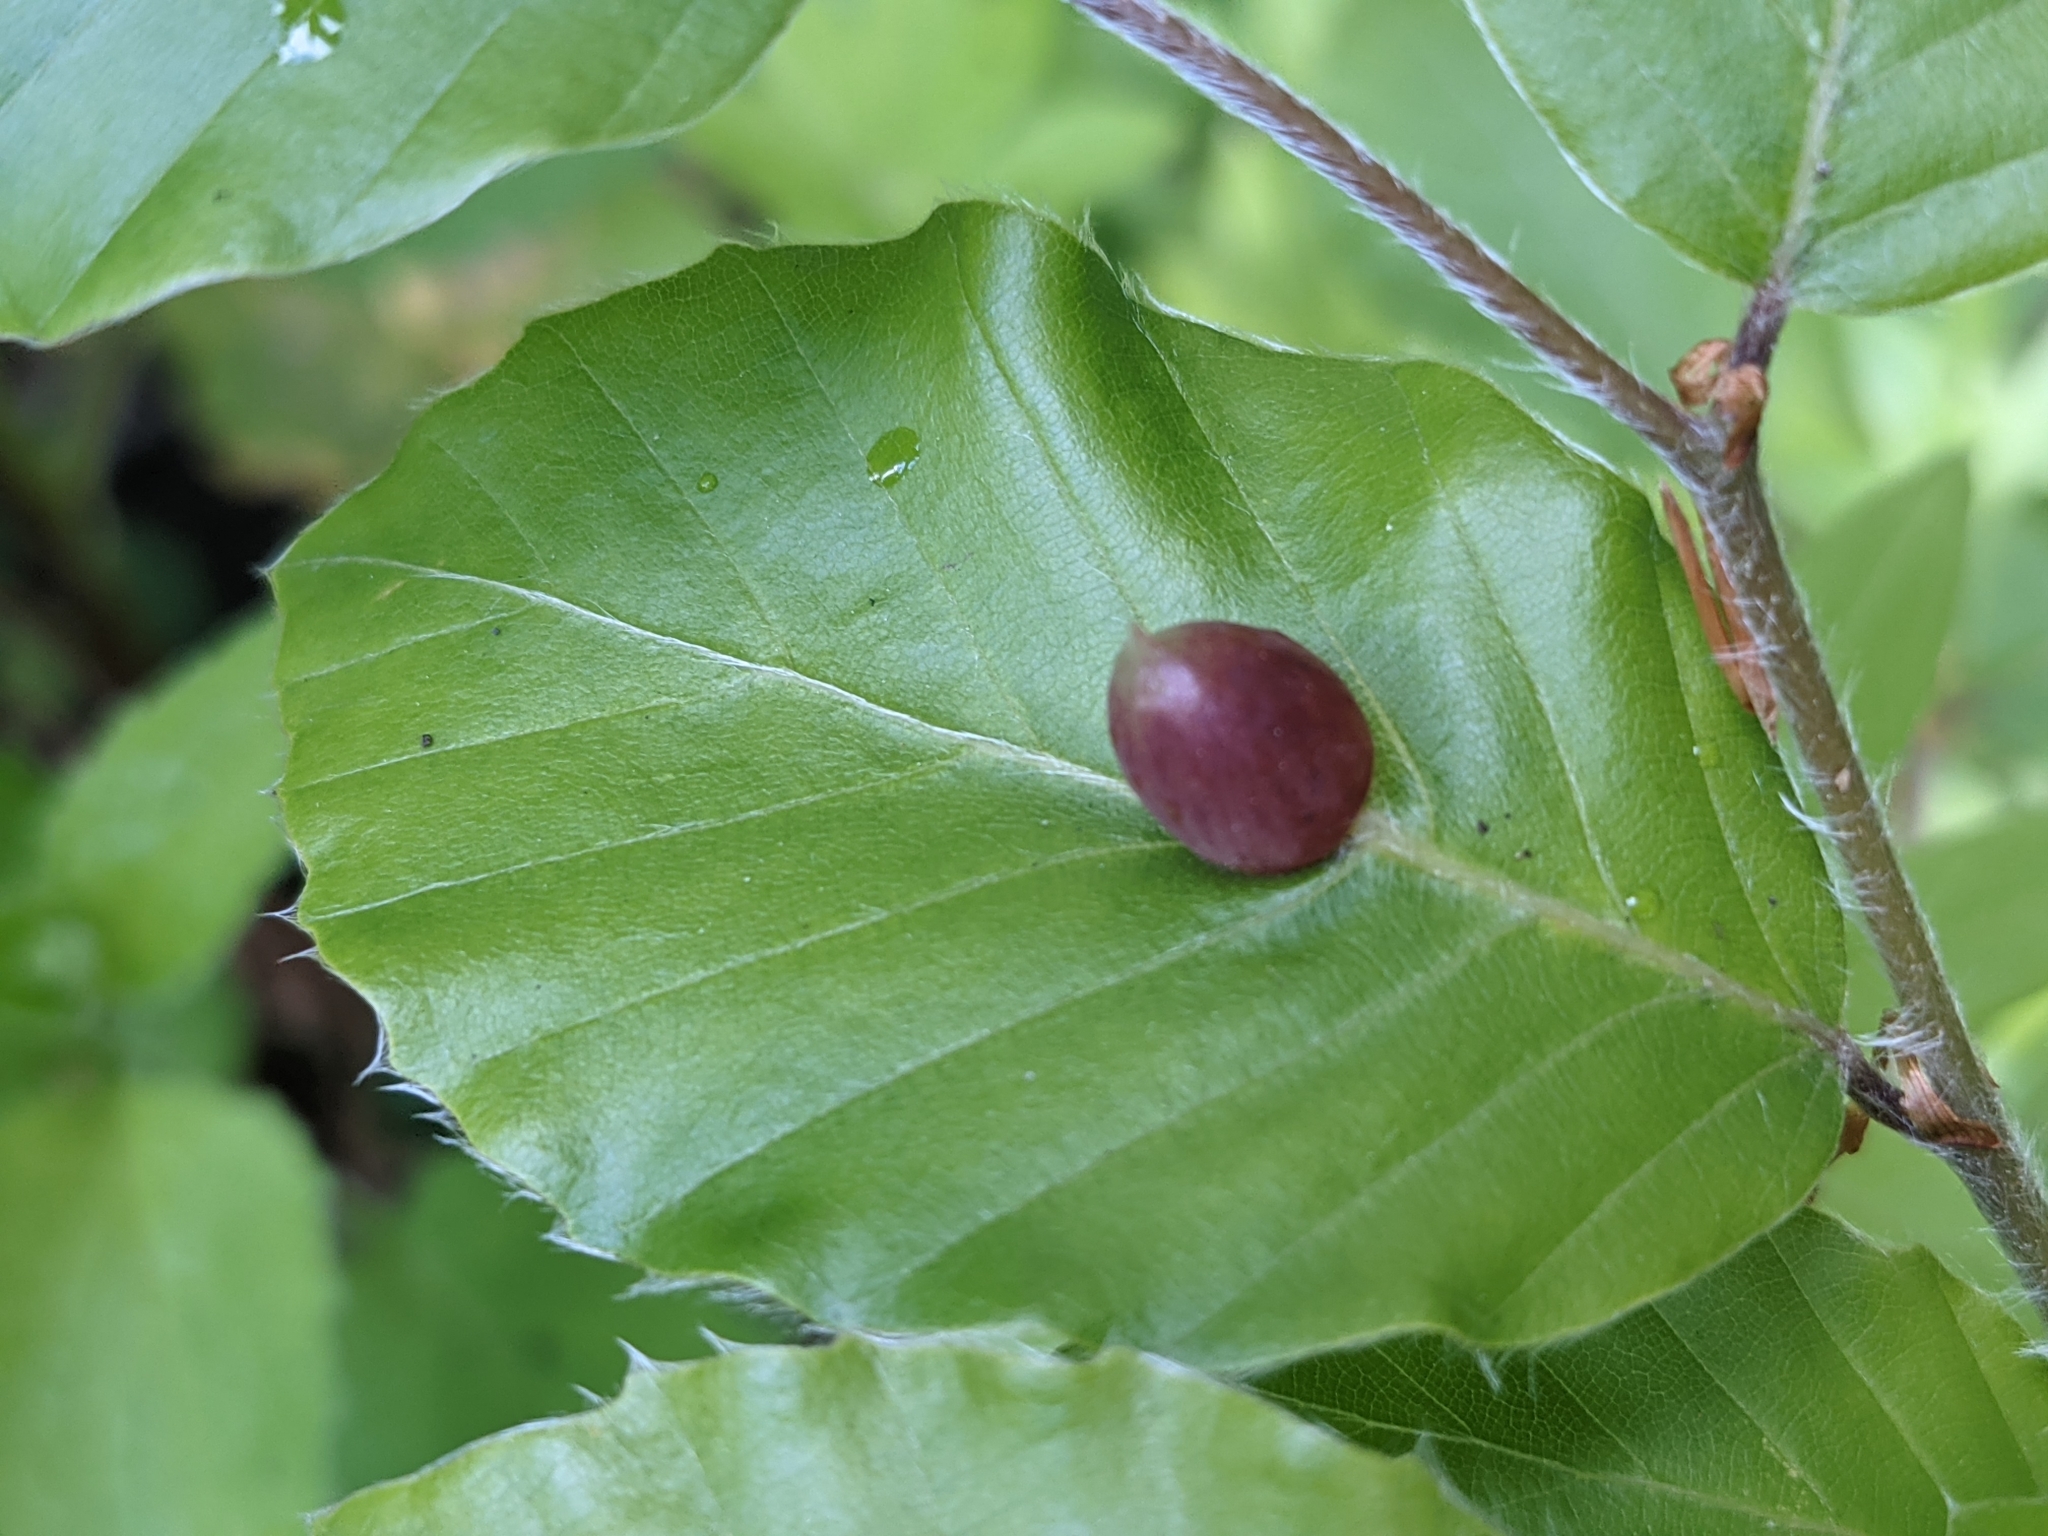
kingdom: Animalia
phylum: Arthropoda
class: Insecta
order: Diptera
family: Cecidomyiidae
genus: Mikiola
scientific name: Mikiola fagi
